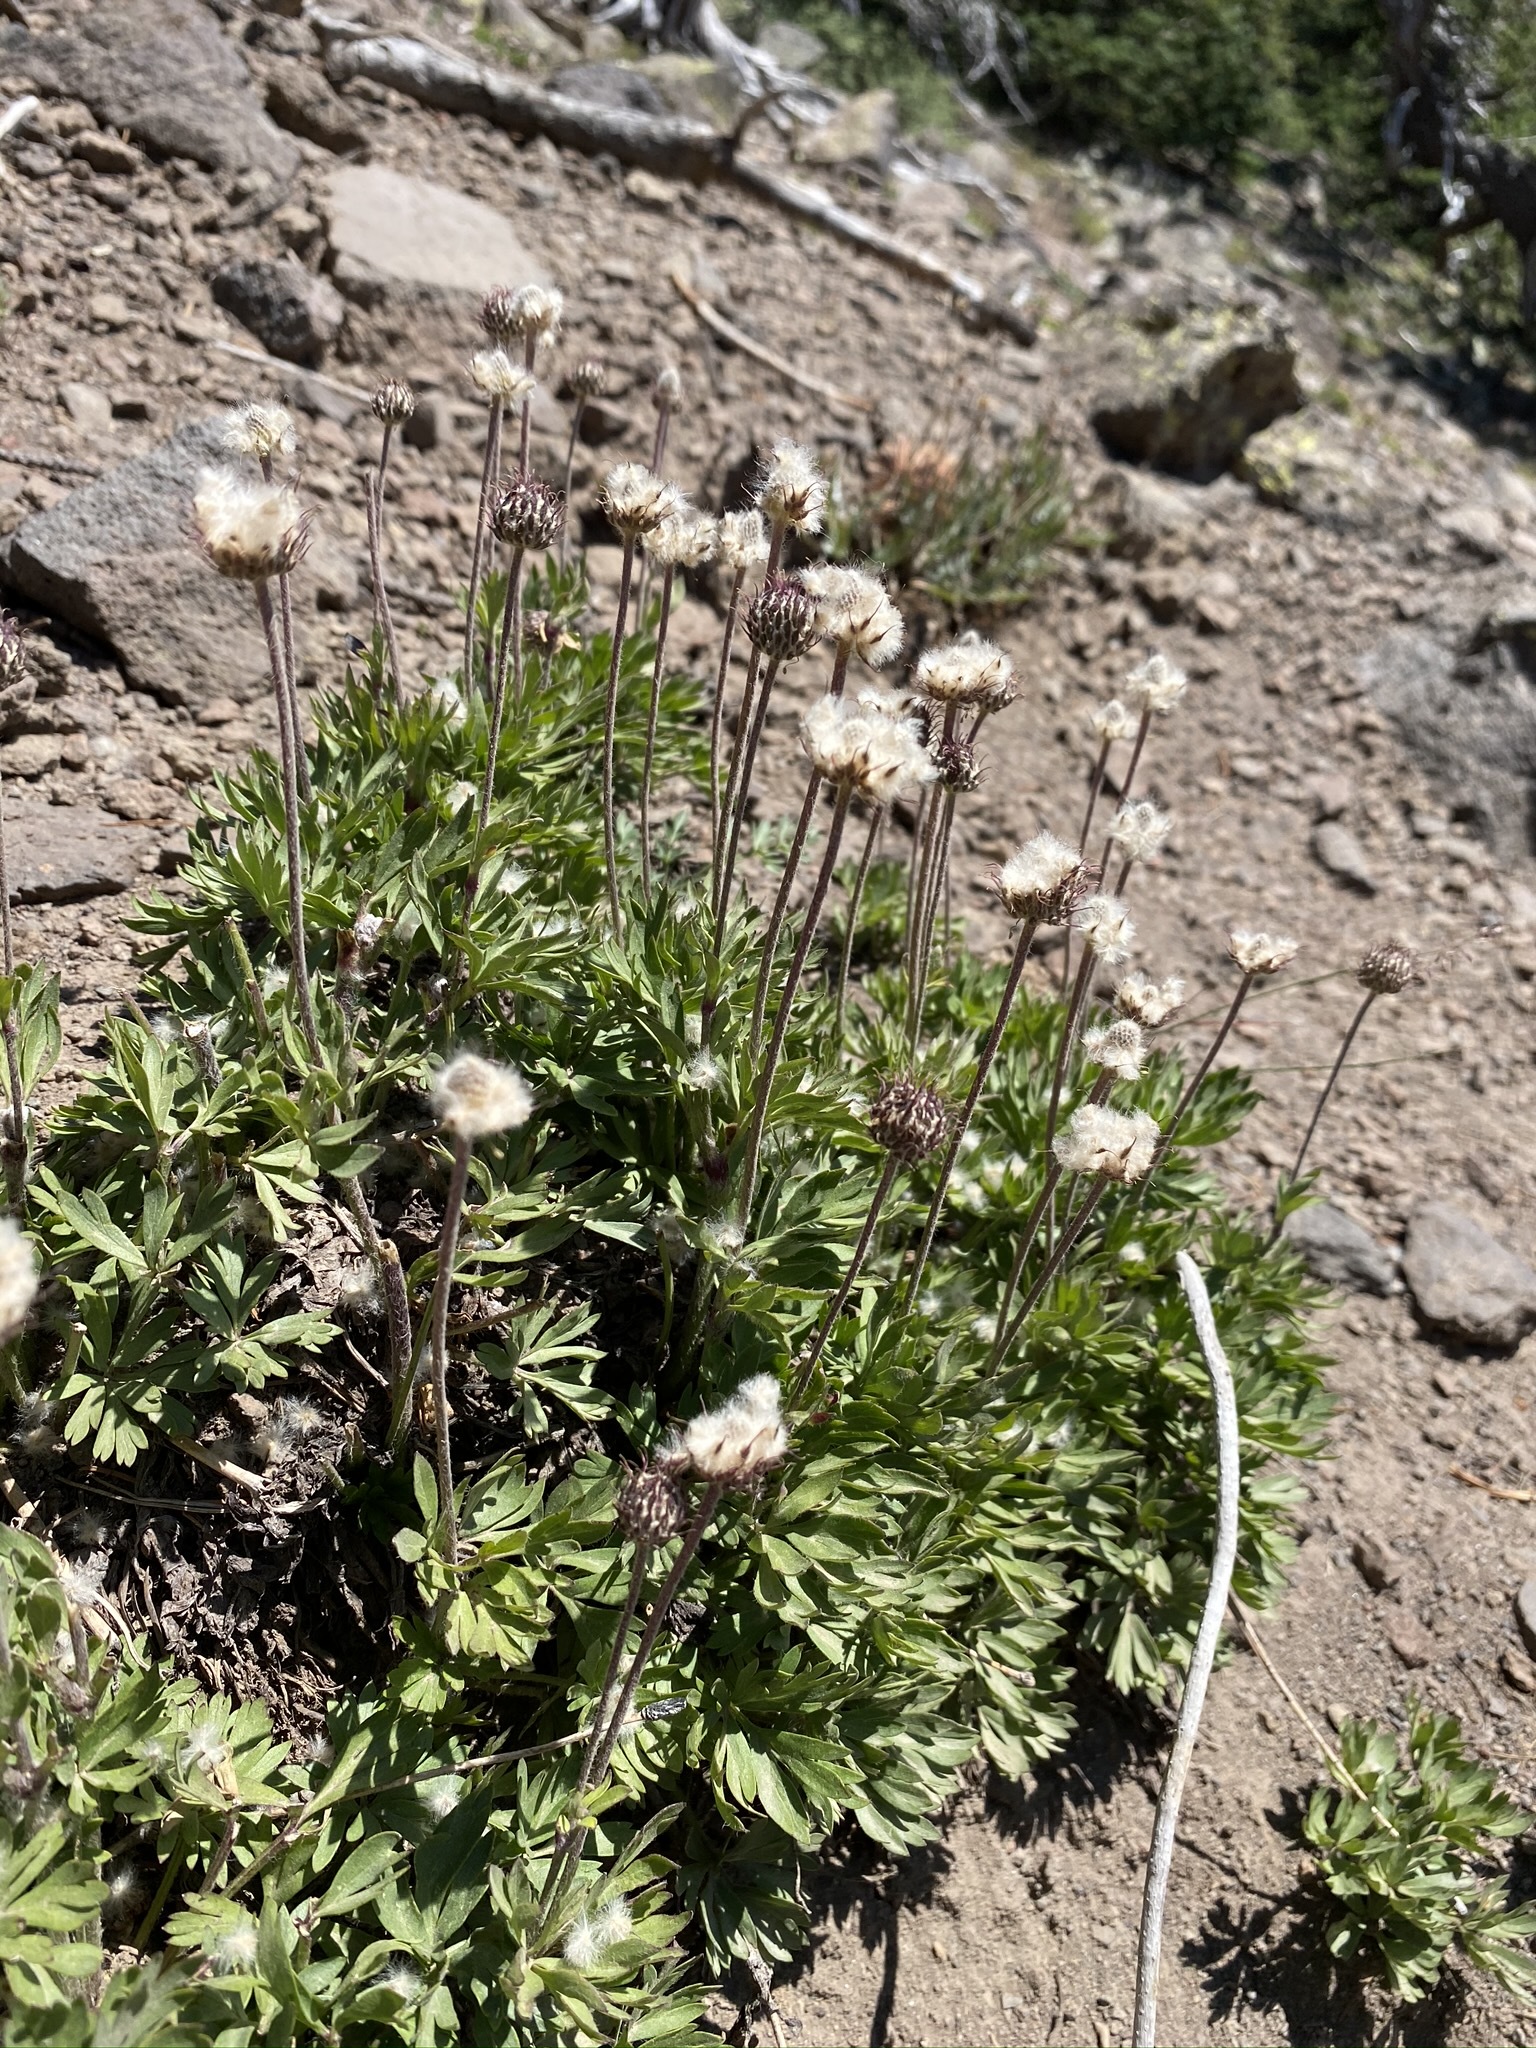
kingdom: Plantae
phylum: Tracheophyta
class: Magnoliopsida
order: Ranunculales
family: Ranunculaceae
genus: Anemone
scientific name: Anemone multifida
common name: Bird's-foot anemone
